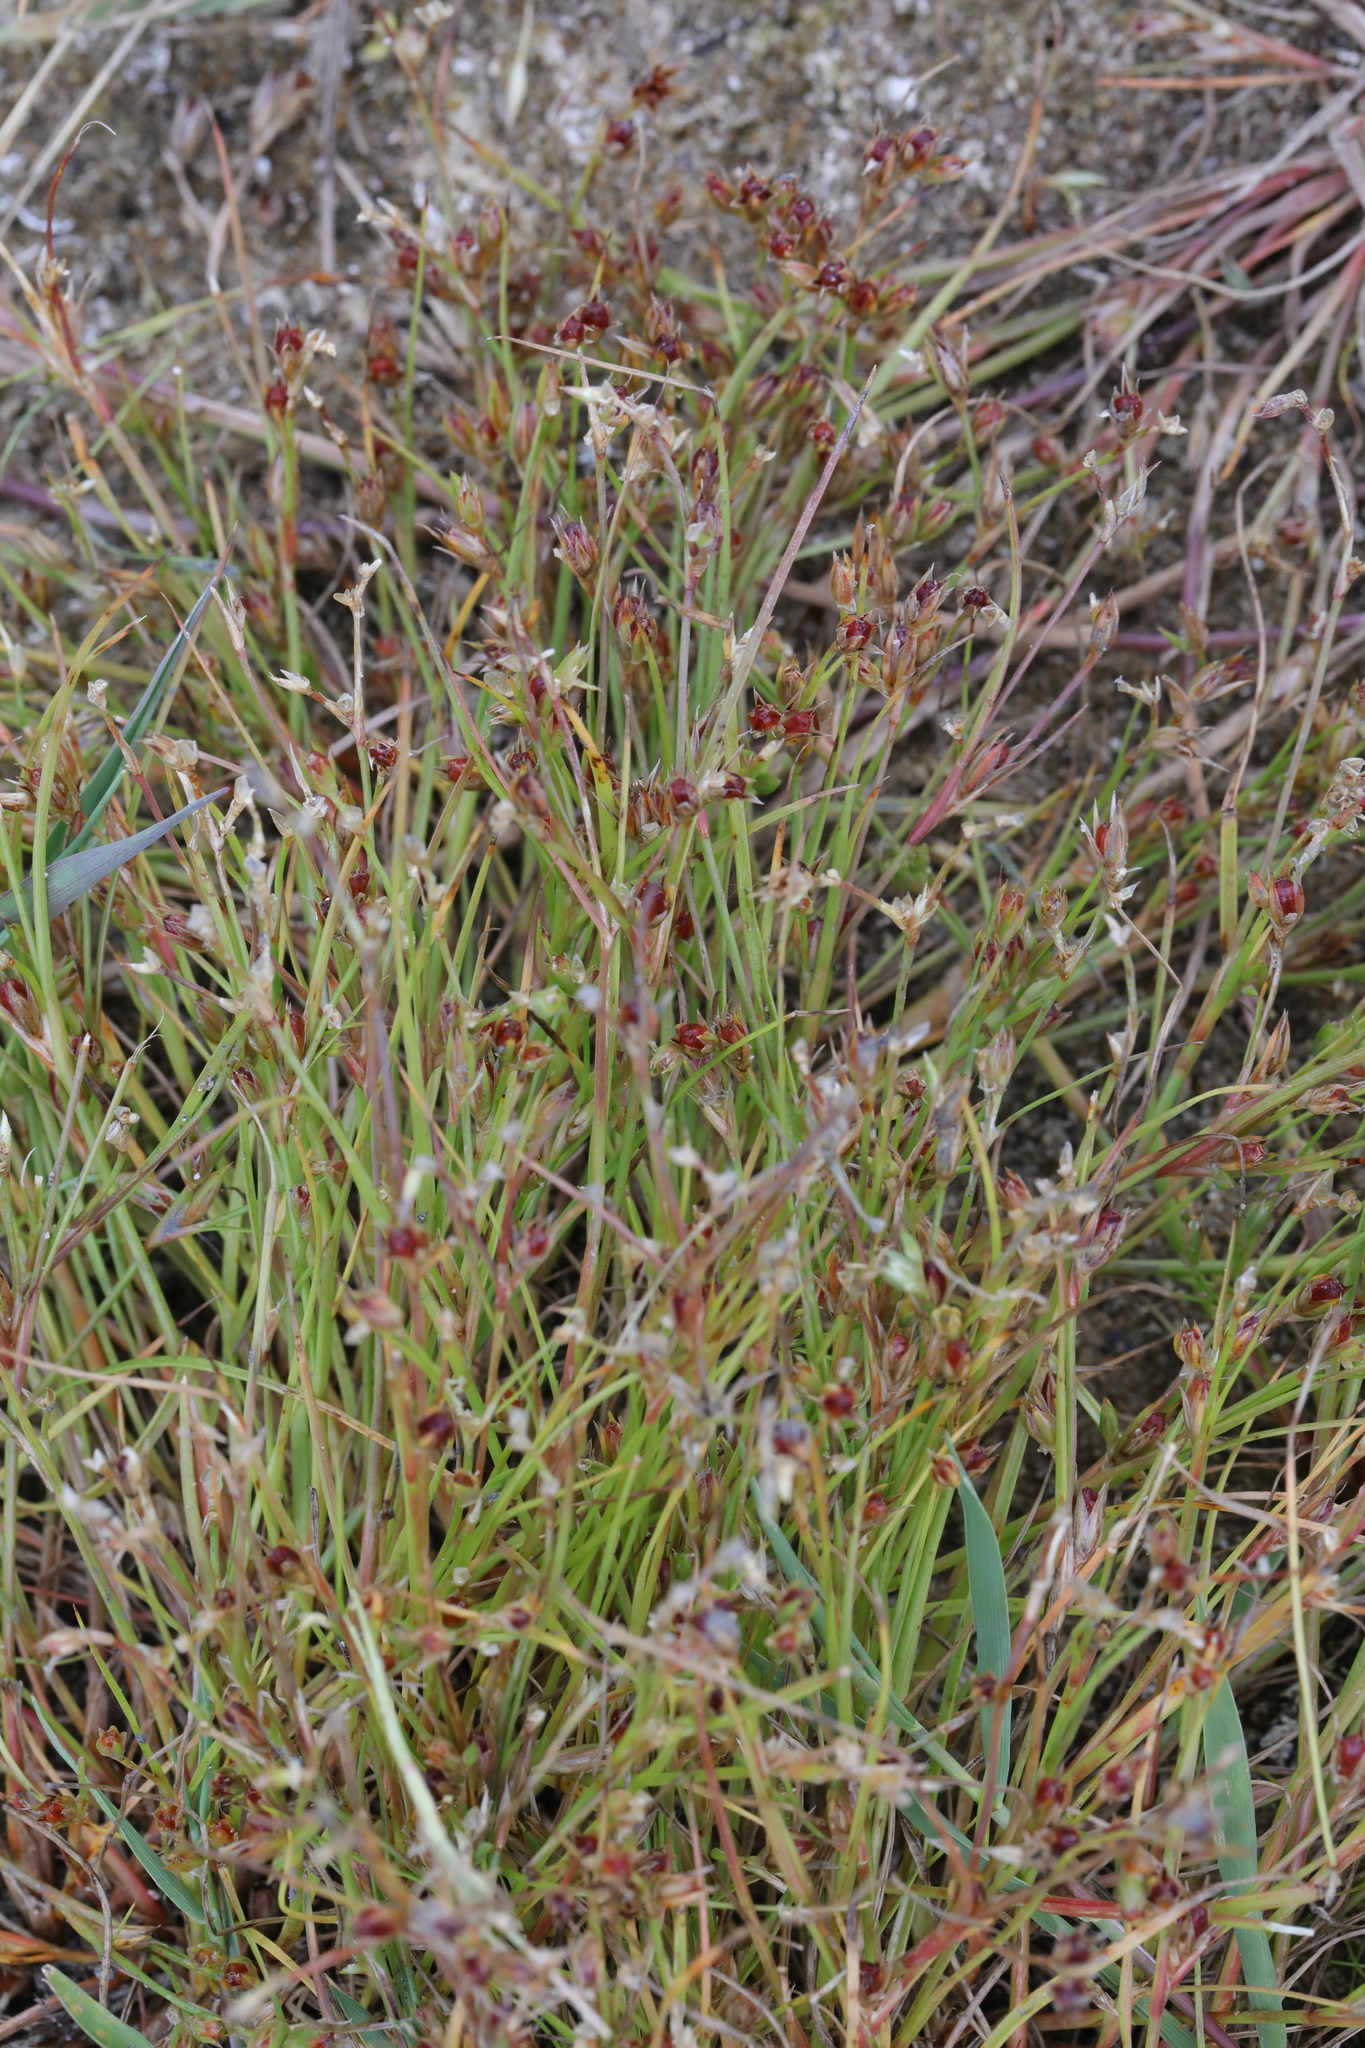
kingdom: Plantae
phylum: Tracheophyta
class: Liliopsida
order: Poales
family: Juncaceae
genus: Juncus
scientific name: Juncus bufonius
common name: Toad rush
